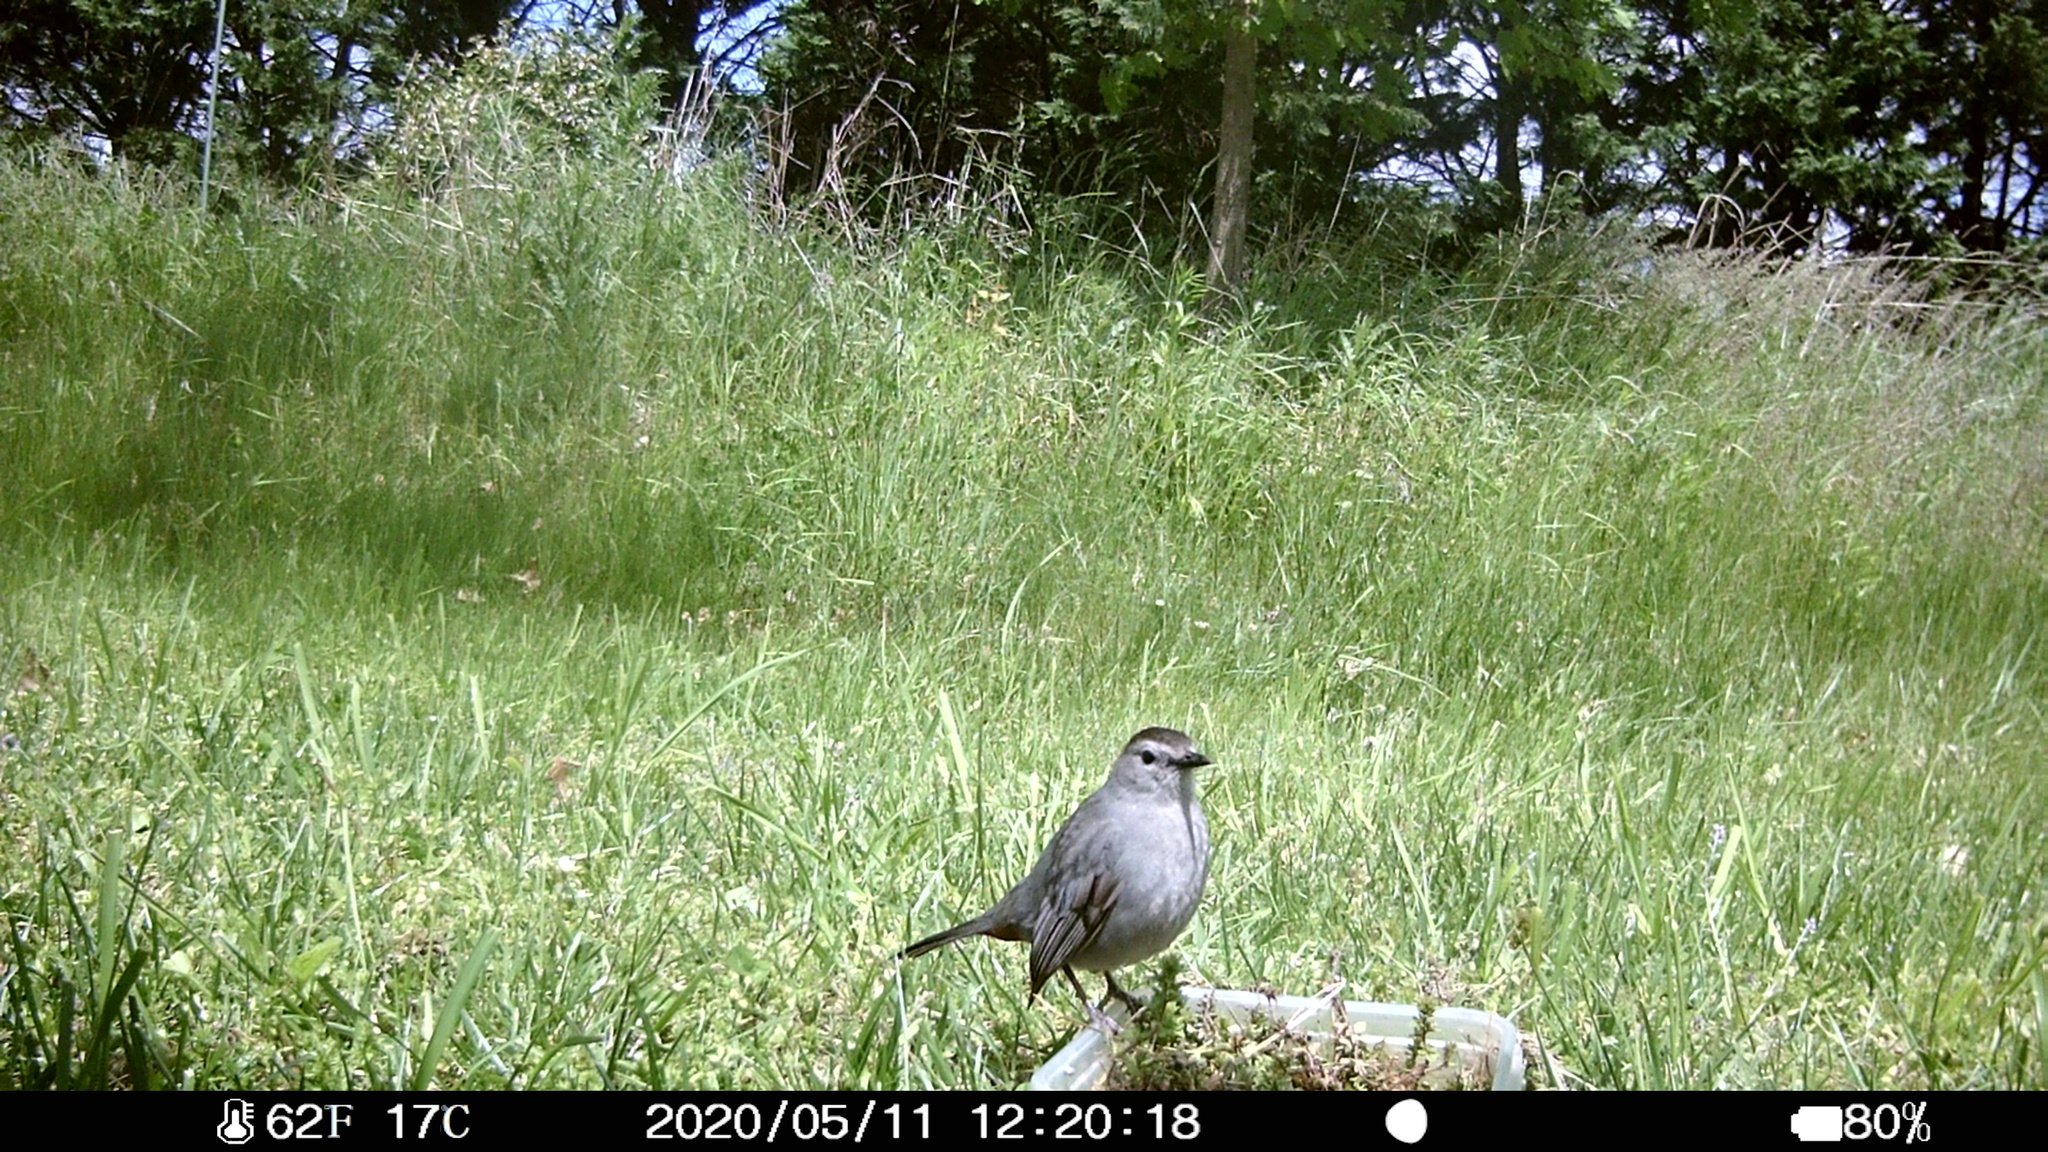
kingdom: Animalia
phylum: Chordata
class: Aves
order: Passeriformes
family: Mimidae
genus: Dumetella
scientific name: Dumetella carolinensis
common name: Gray catbird
